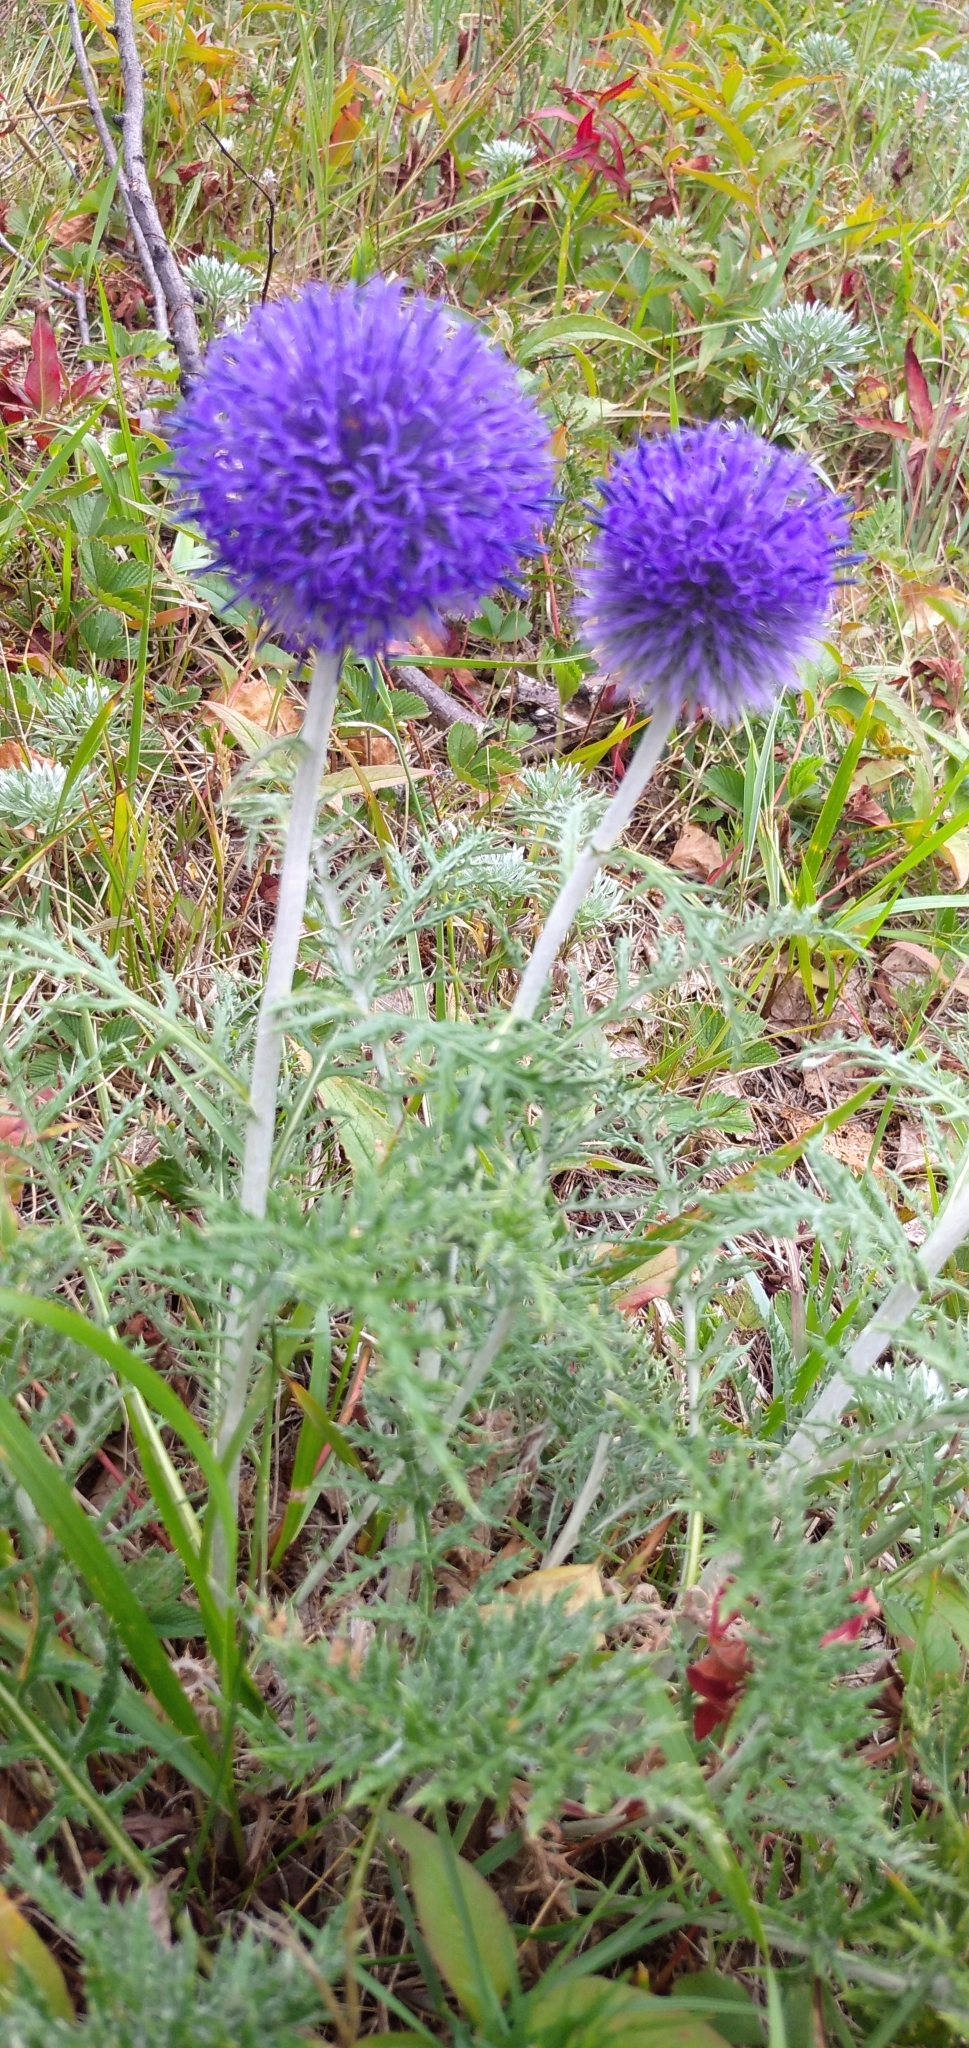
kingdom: Plantae
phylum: Tracheophyta
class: Magnoliopsida
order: Asterales
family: Asteraceae
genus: Echinops
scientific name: Echinops ritro
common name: Globe thistle
